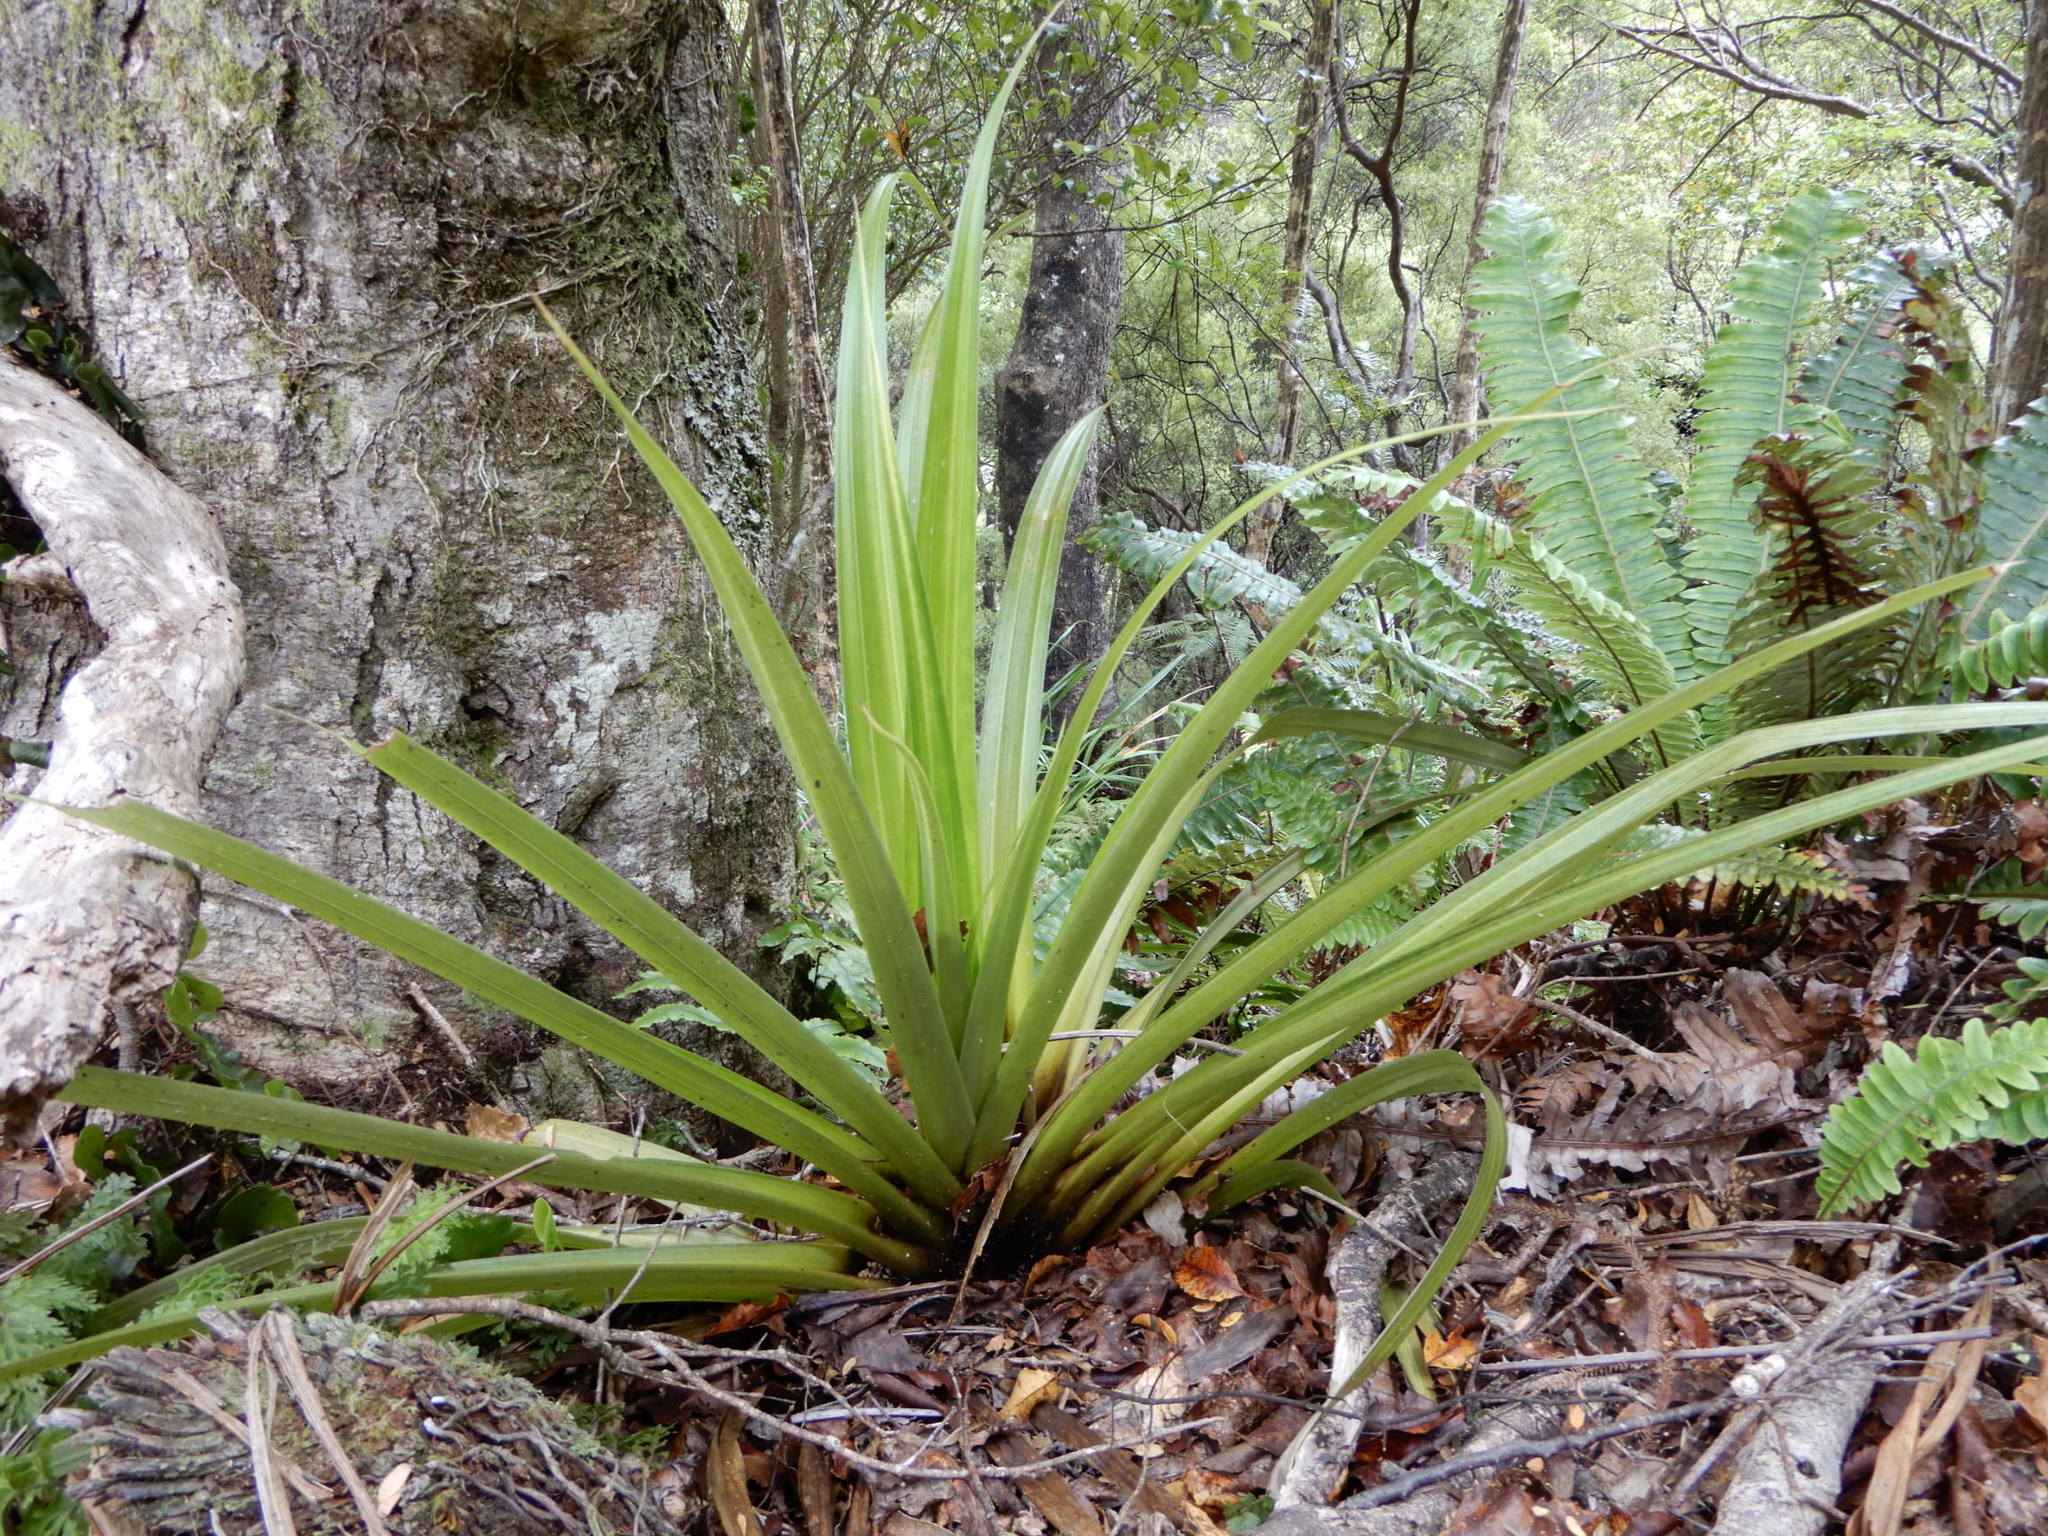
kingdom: Plantae
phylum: Tracheophyta
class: Liliopsida
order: Asparagales
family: Asteliaceae
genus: Astelia
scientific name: Astelia hastata
